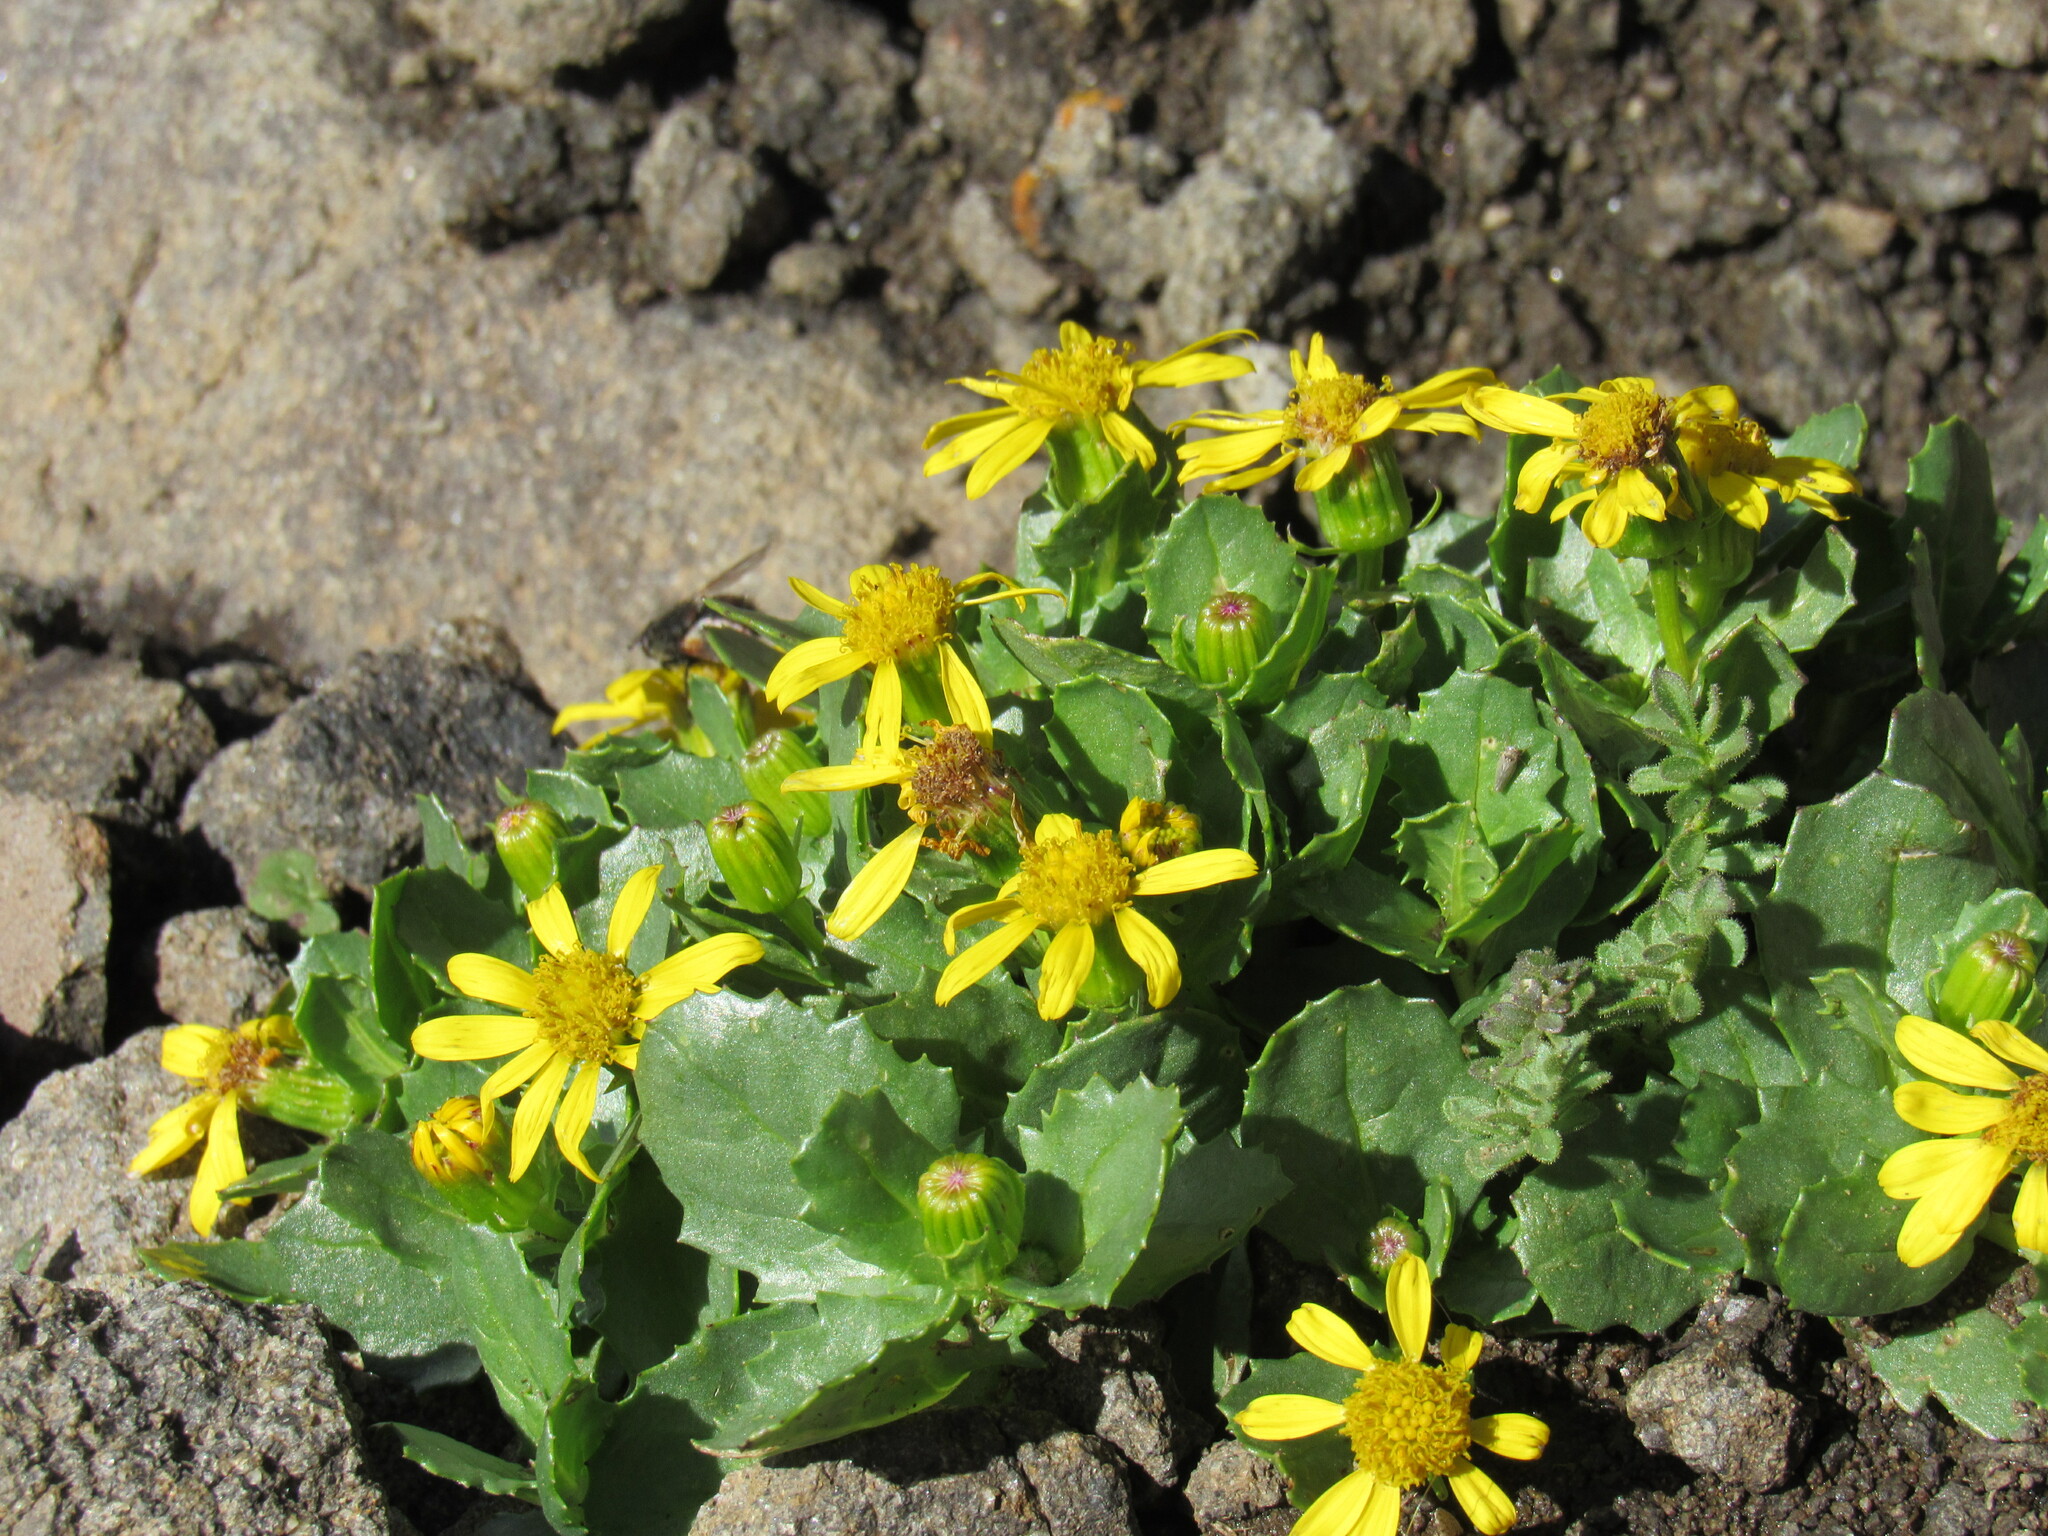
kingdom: Plantae
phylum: Tracheophyta
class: Magnoliopsida
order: Asterales
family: Asteraceae
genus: Senecio
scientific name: Senecio fremontii
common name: Fremont's groundsel
